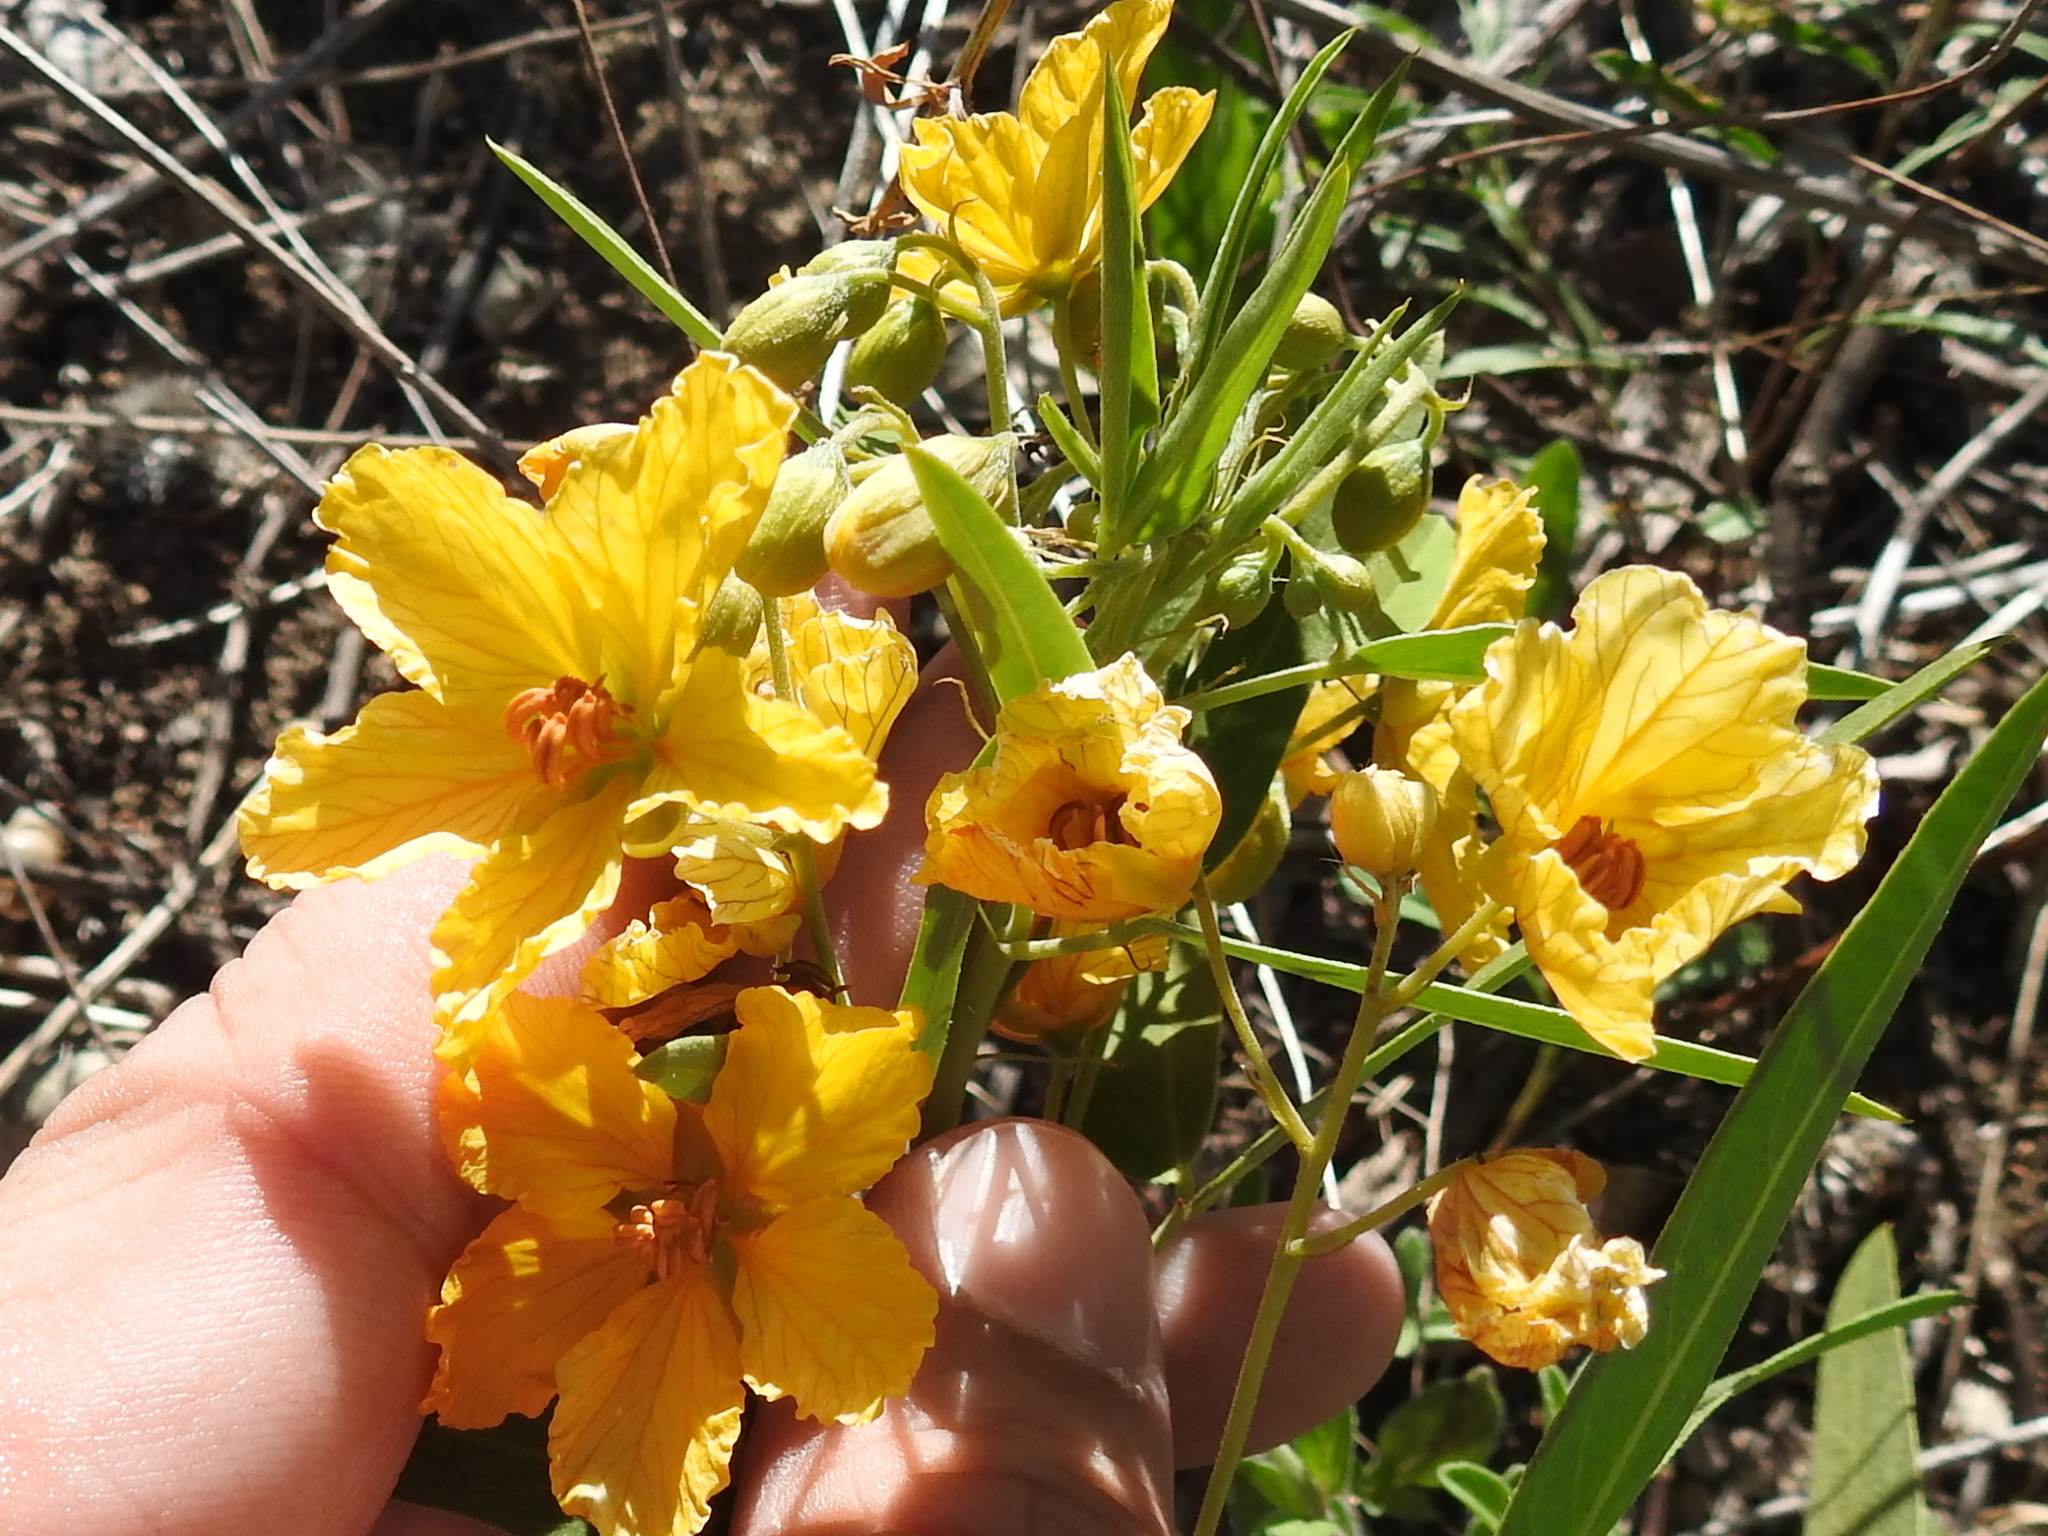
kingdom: Plantae
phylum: Tracheophyta
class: Magnoliopsida
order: Fabales
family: Fabaceae
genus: Senna
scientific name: Senna roemeriana
